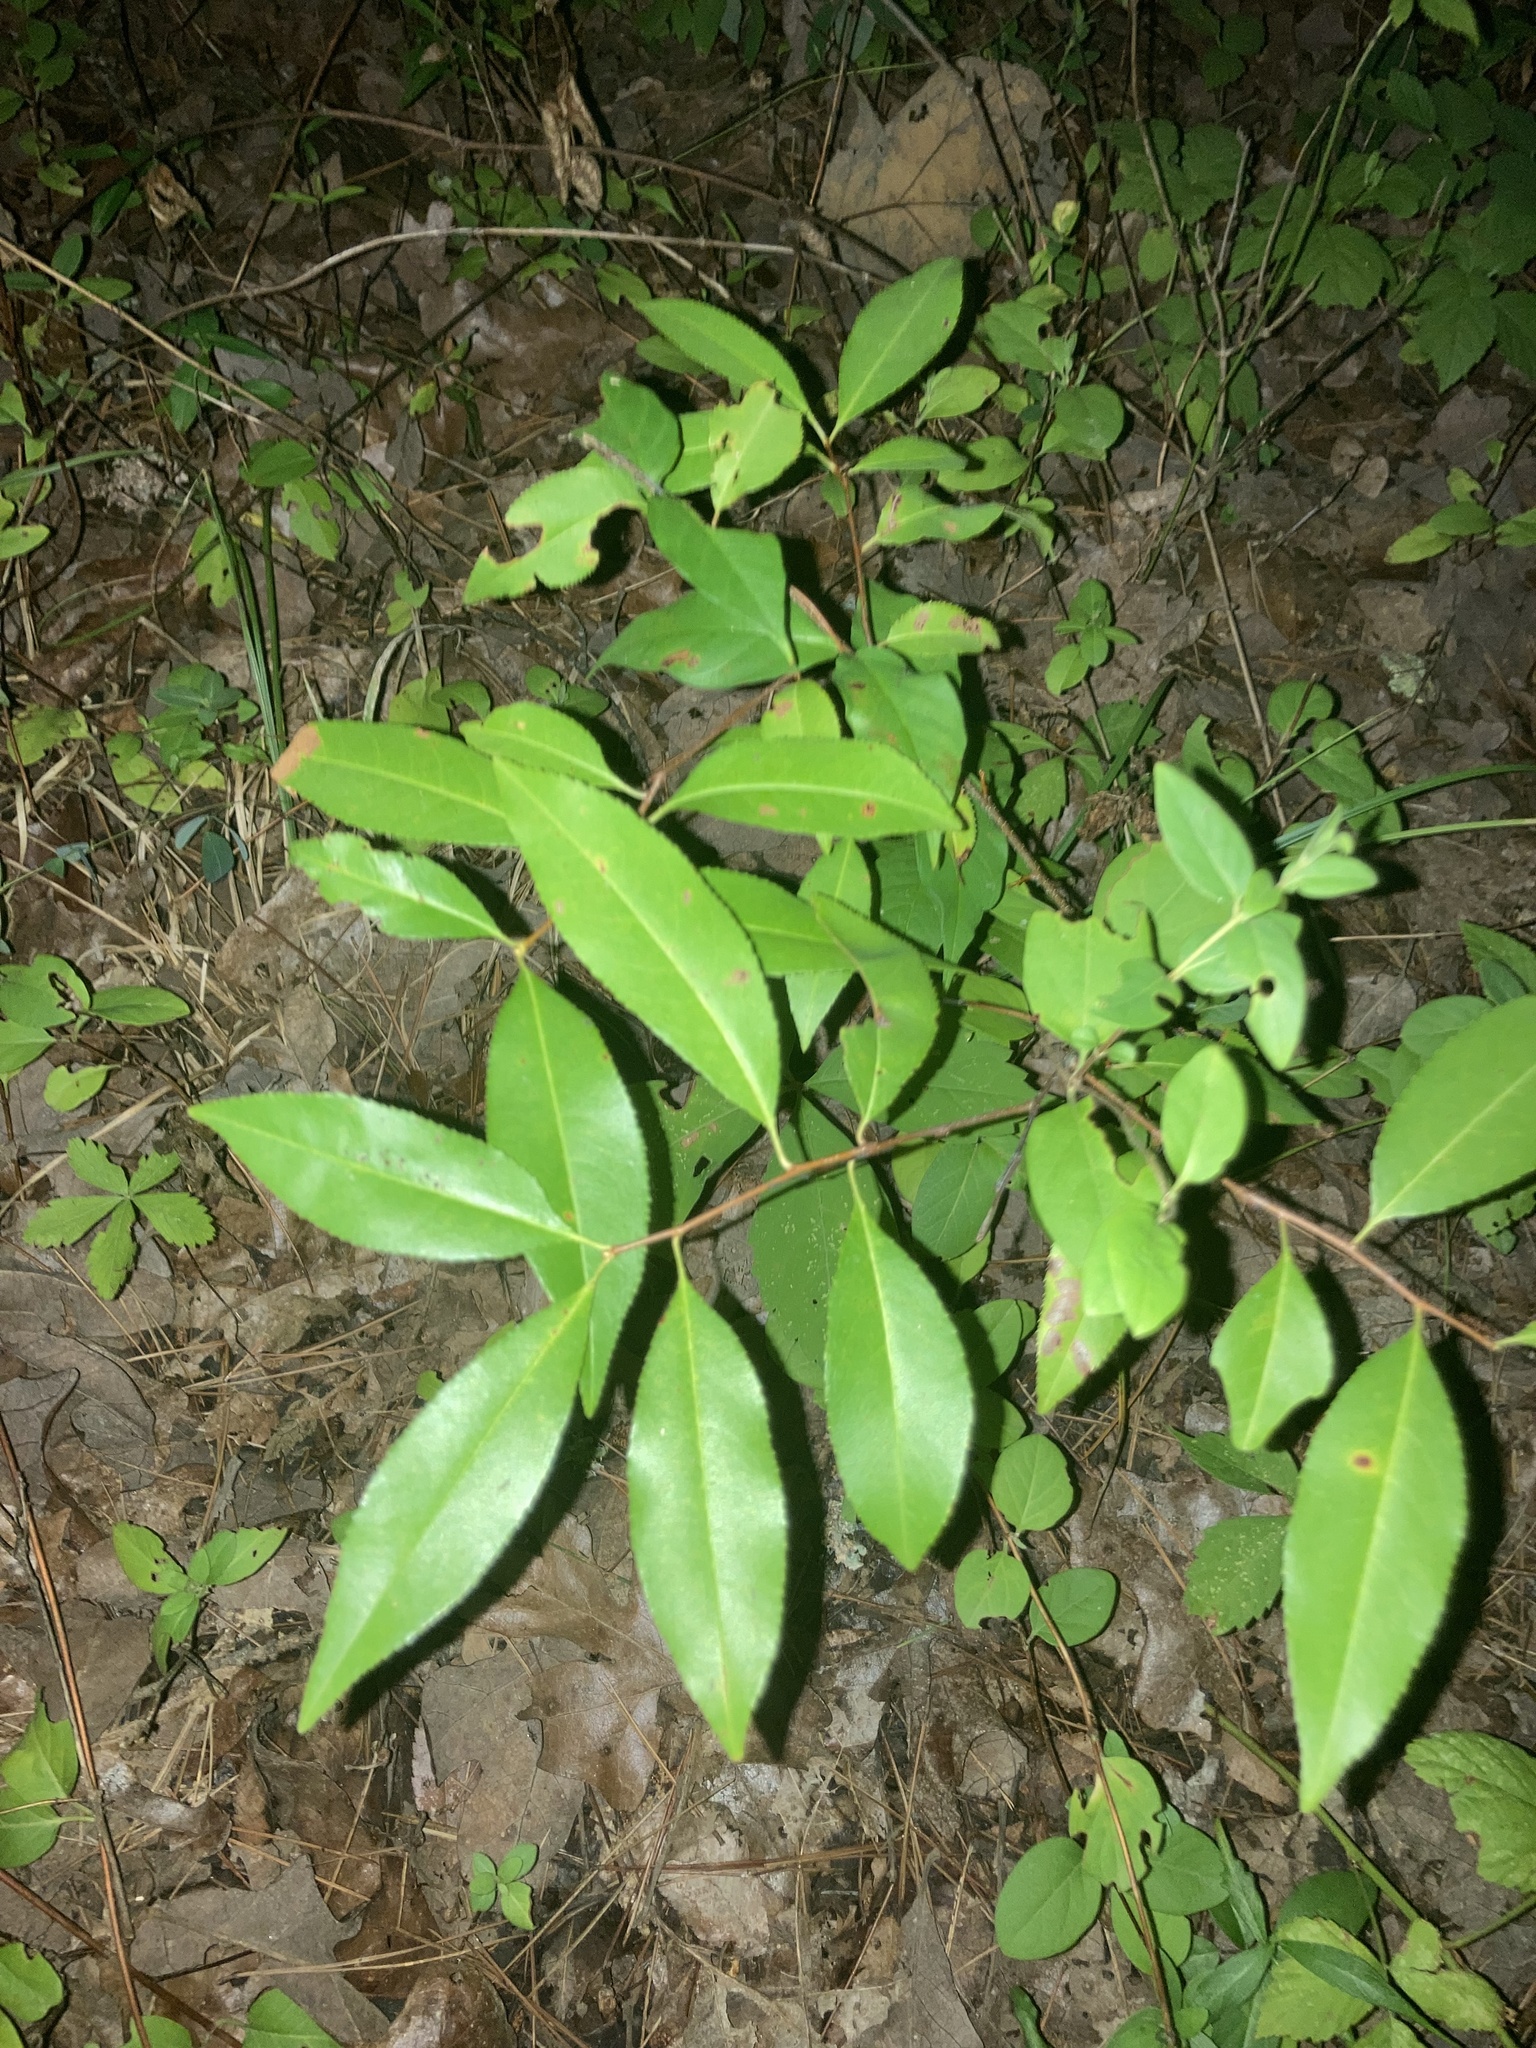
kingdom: Plantae
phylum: Tracheophyta
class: Magnoliopsida
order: Rosales
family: Rosaceae
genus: Prunus
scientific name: Prunus serotina
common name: Black cherry
